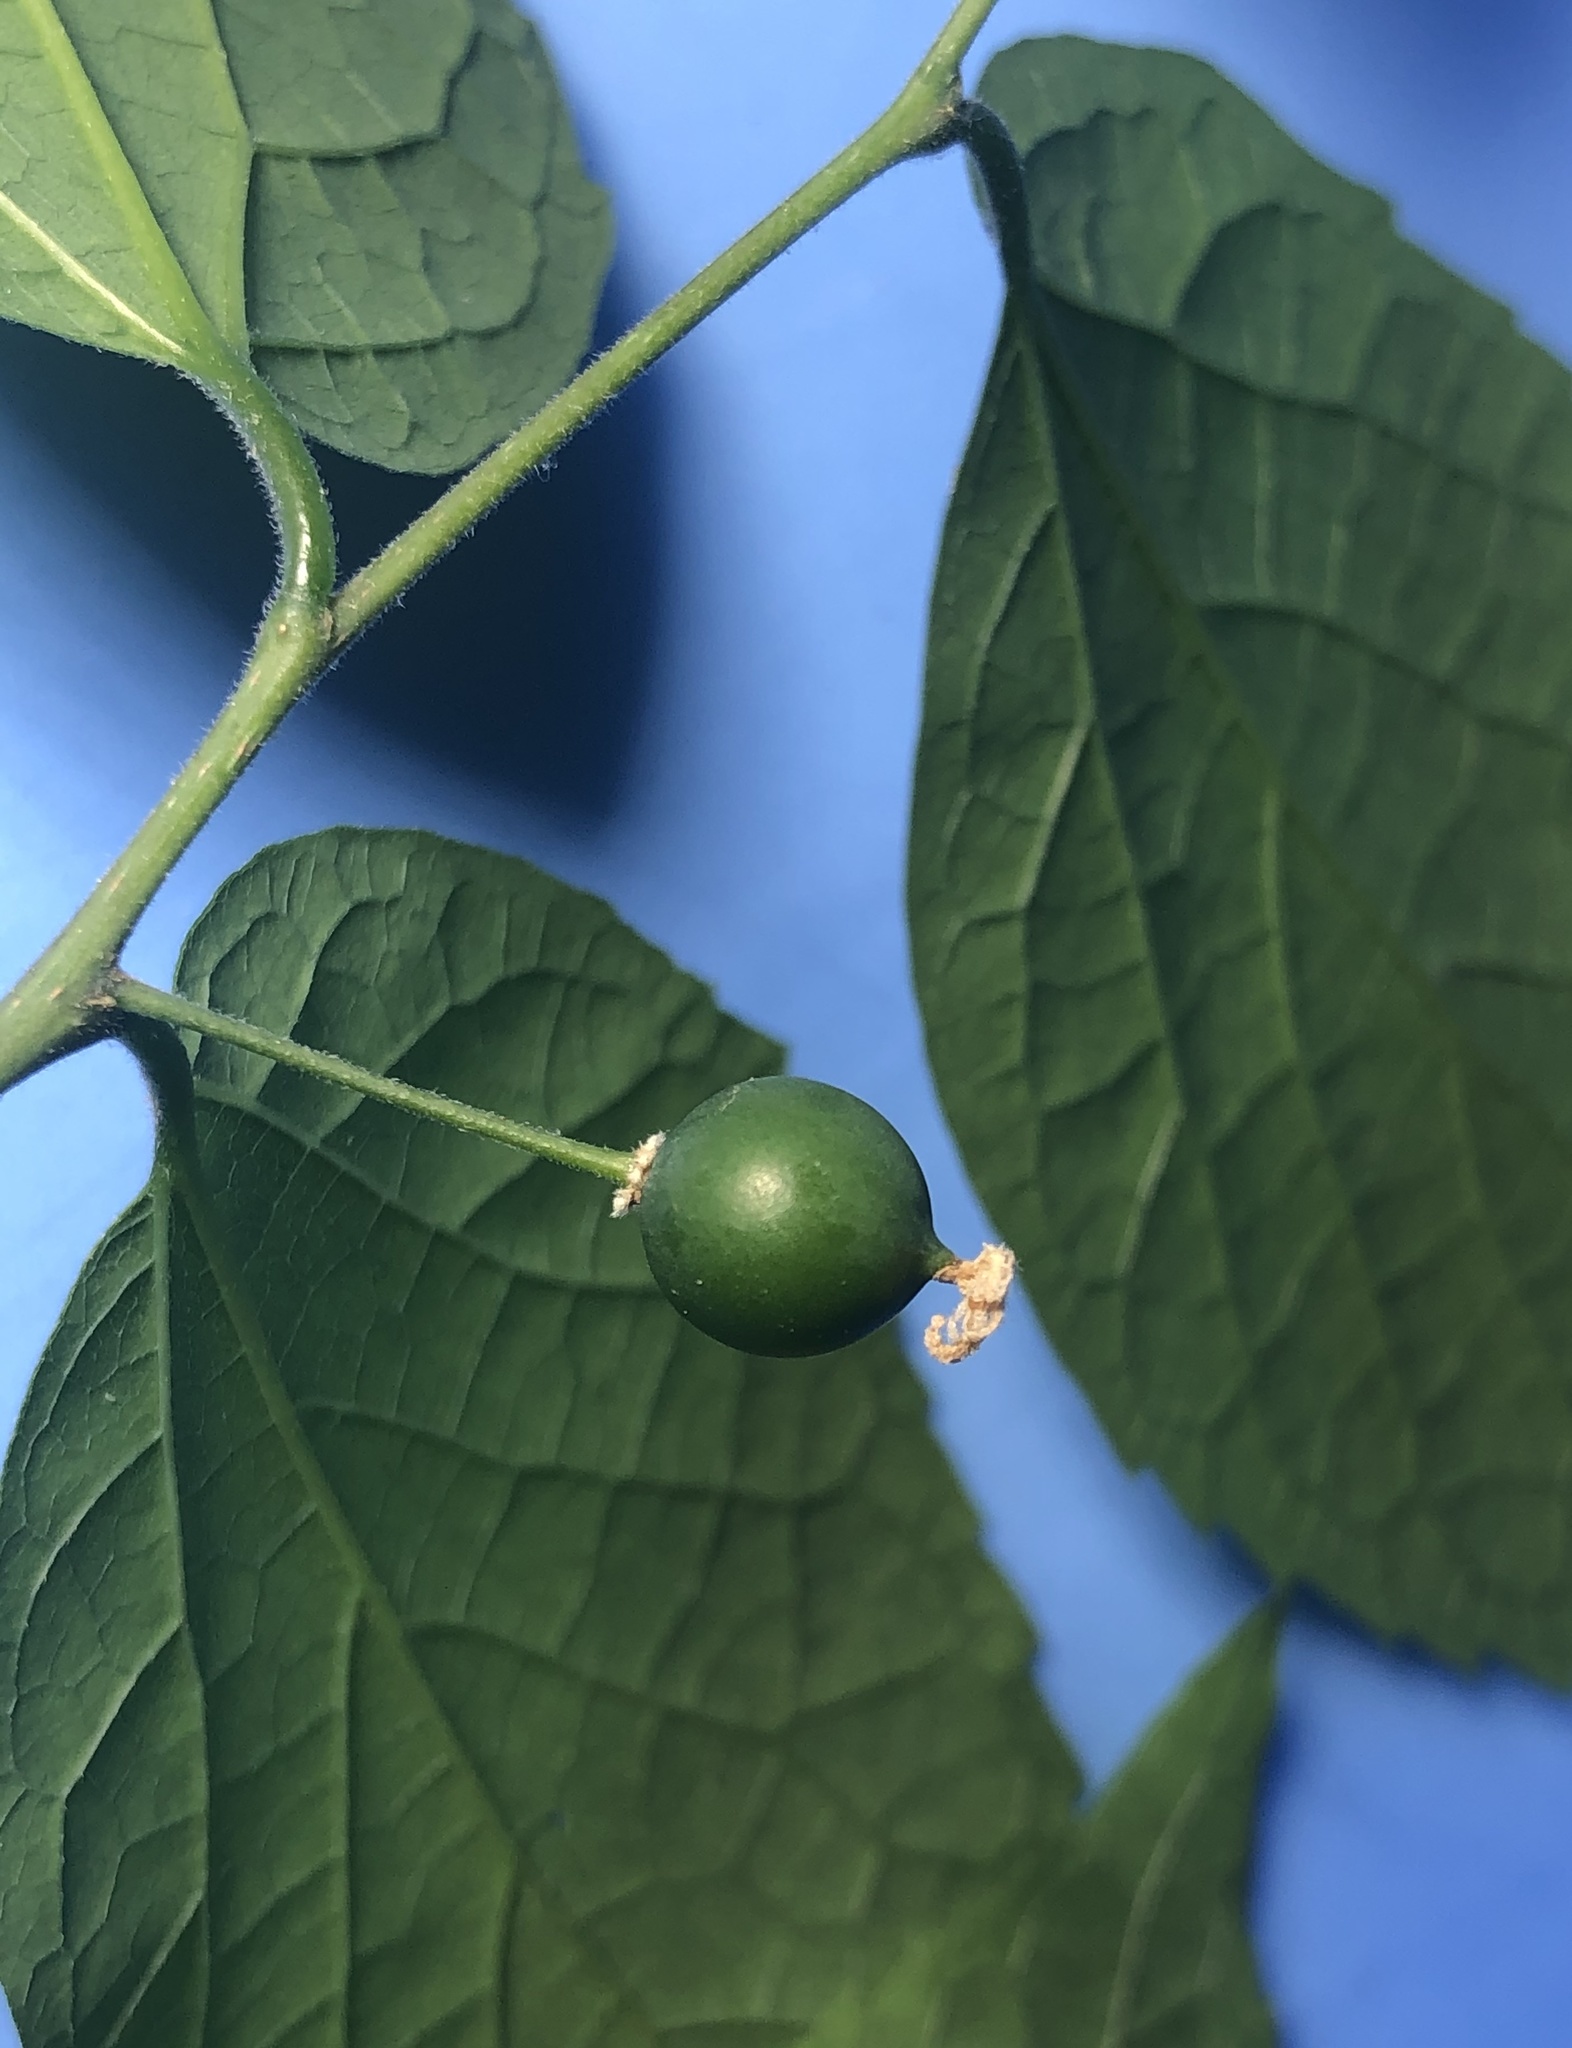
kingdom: Plantae
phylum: Tracheophyta
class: Magnoliopsida
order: Rosales
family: Cannabaceae
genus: Celtis
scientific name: Celtis laevigata
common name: Sugarberry
